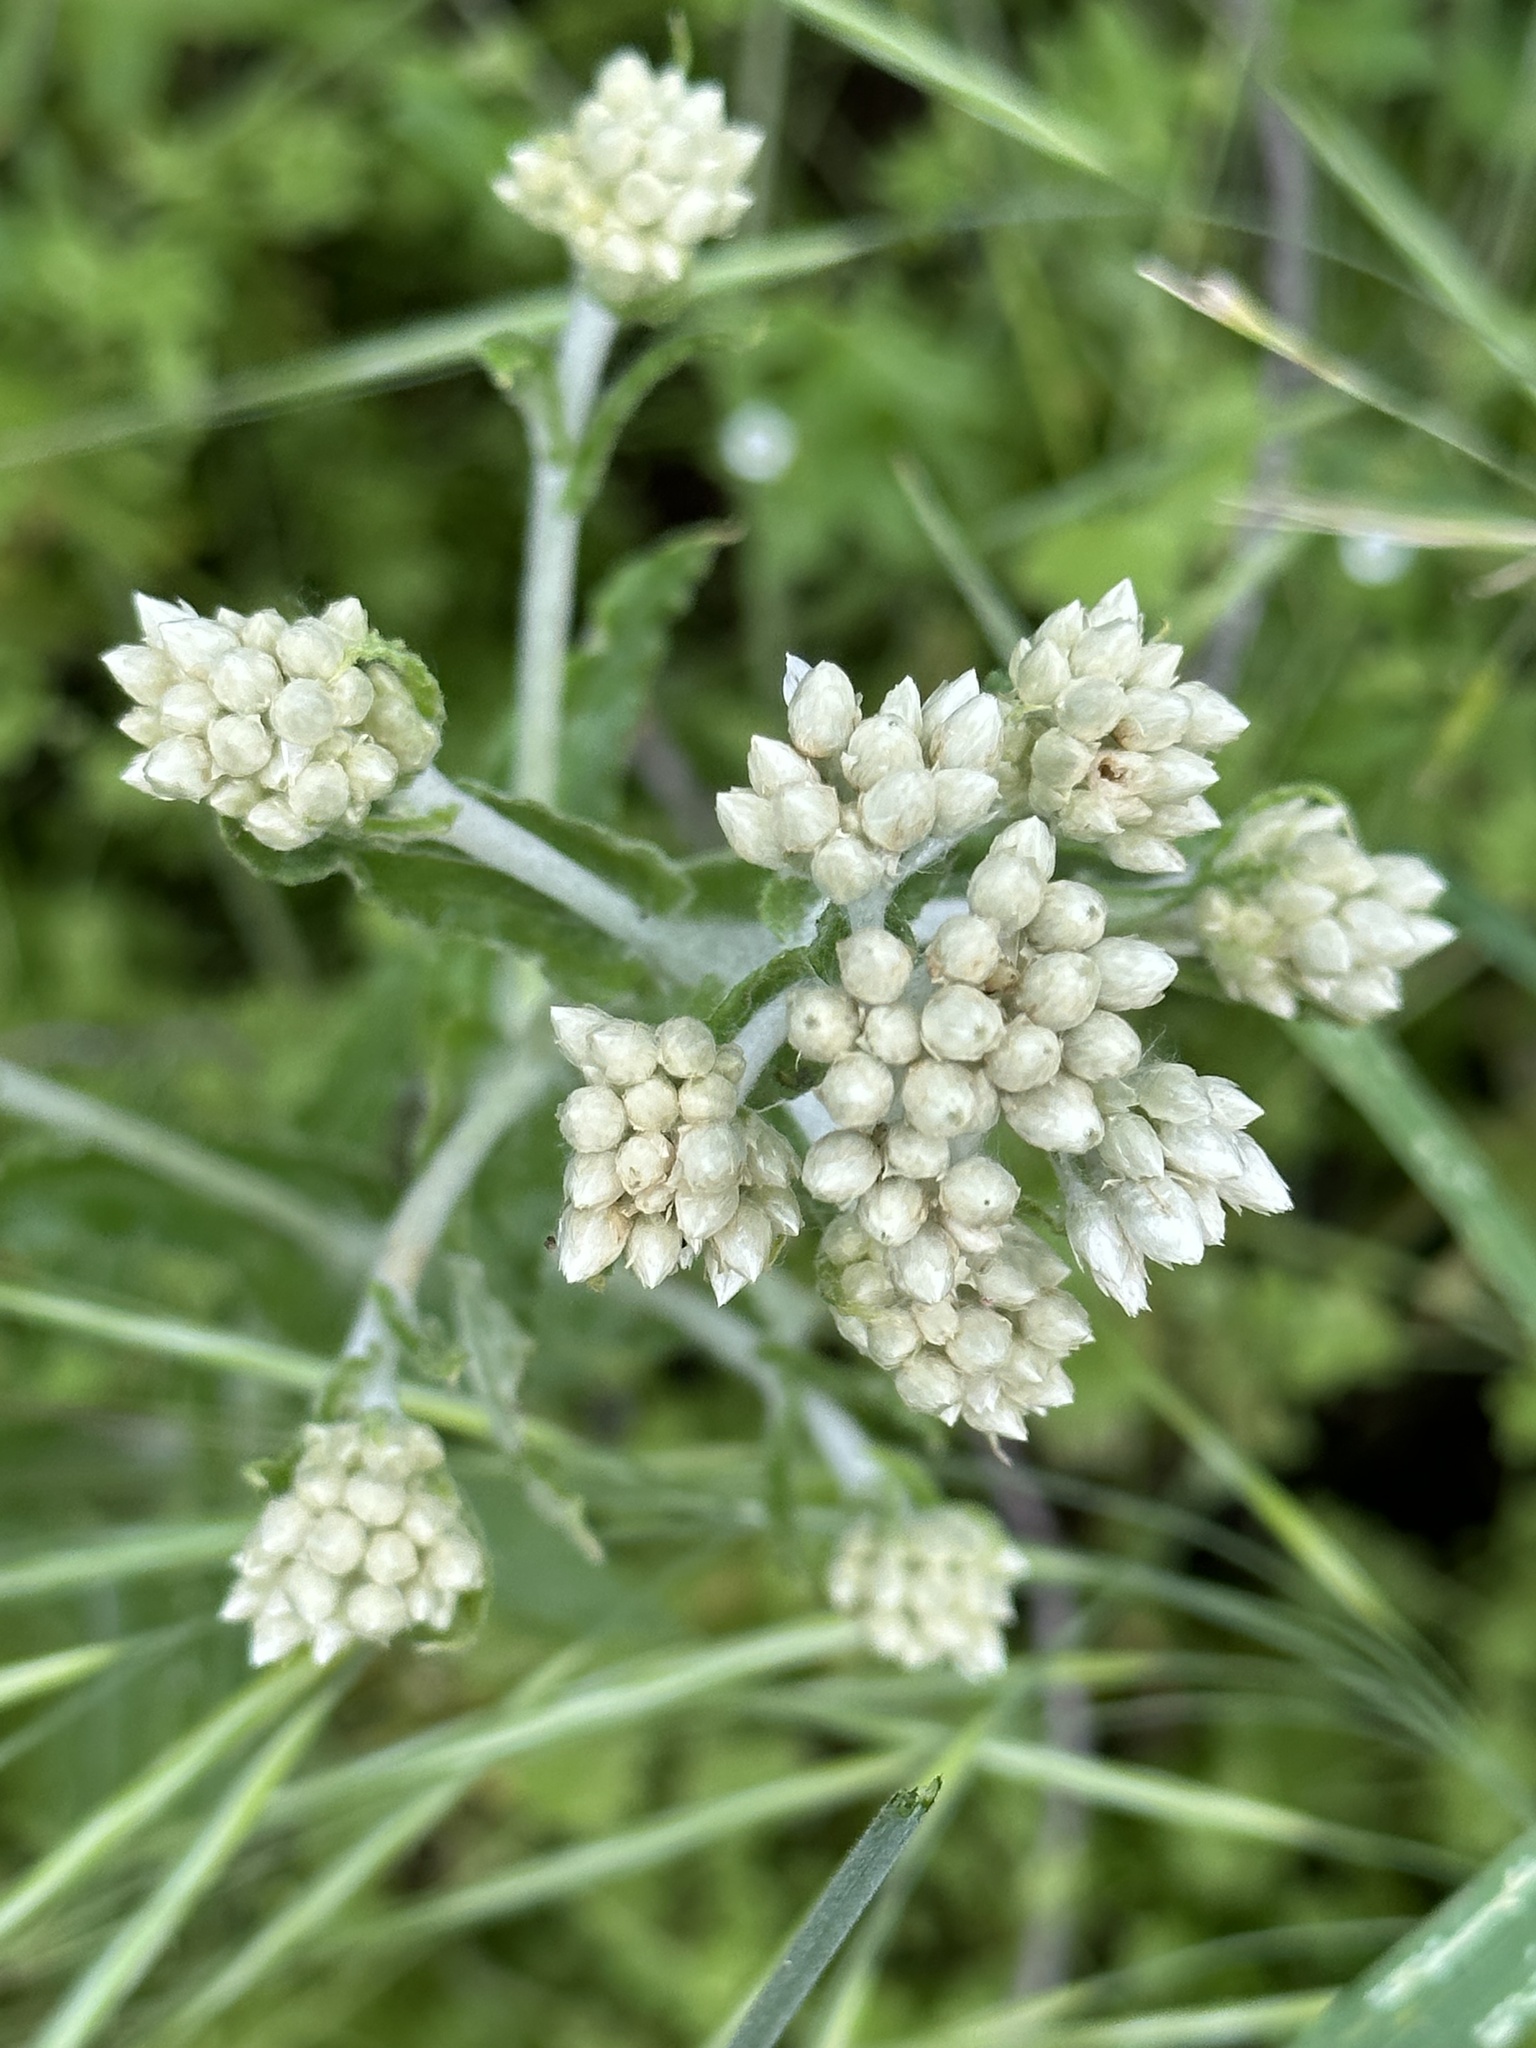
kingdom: Plantae
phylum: Tracheophyta
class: Magnoliopsida
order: Asterales
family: Asteraceae
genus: Pseudognaphalium
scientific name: Pseudognaphalium biolettii
